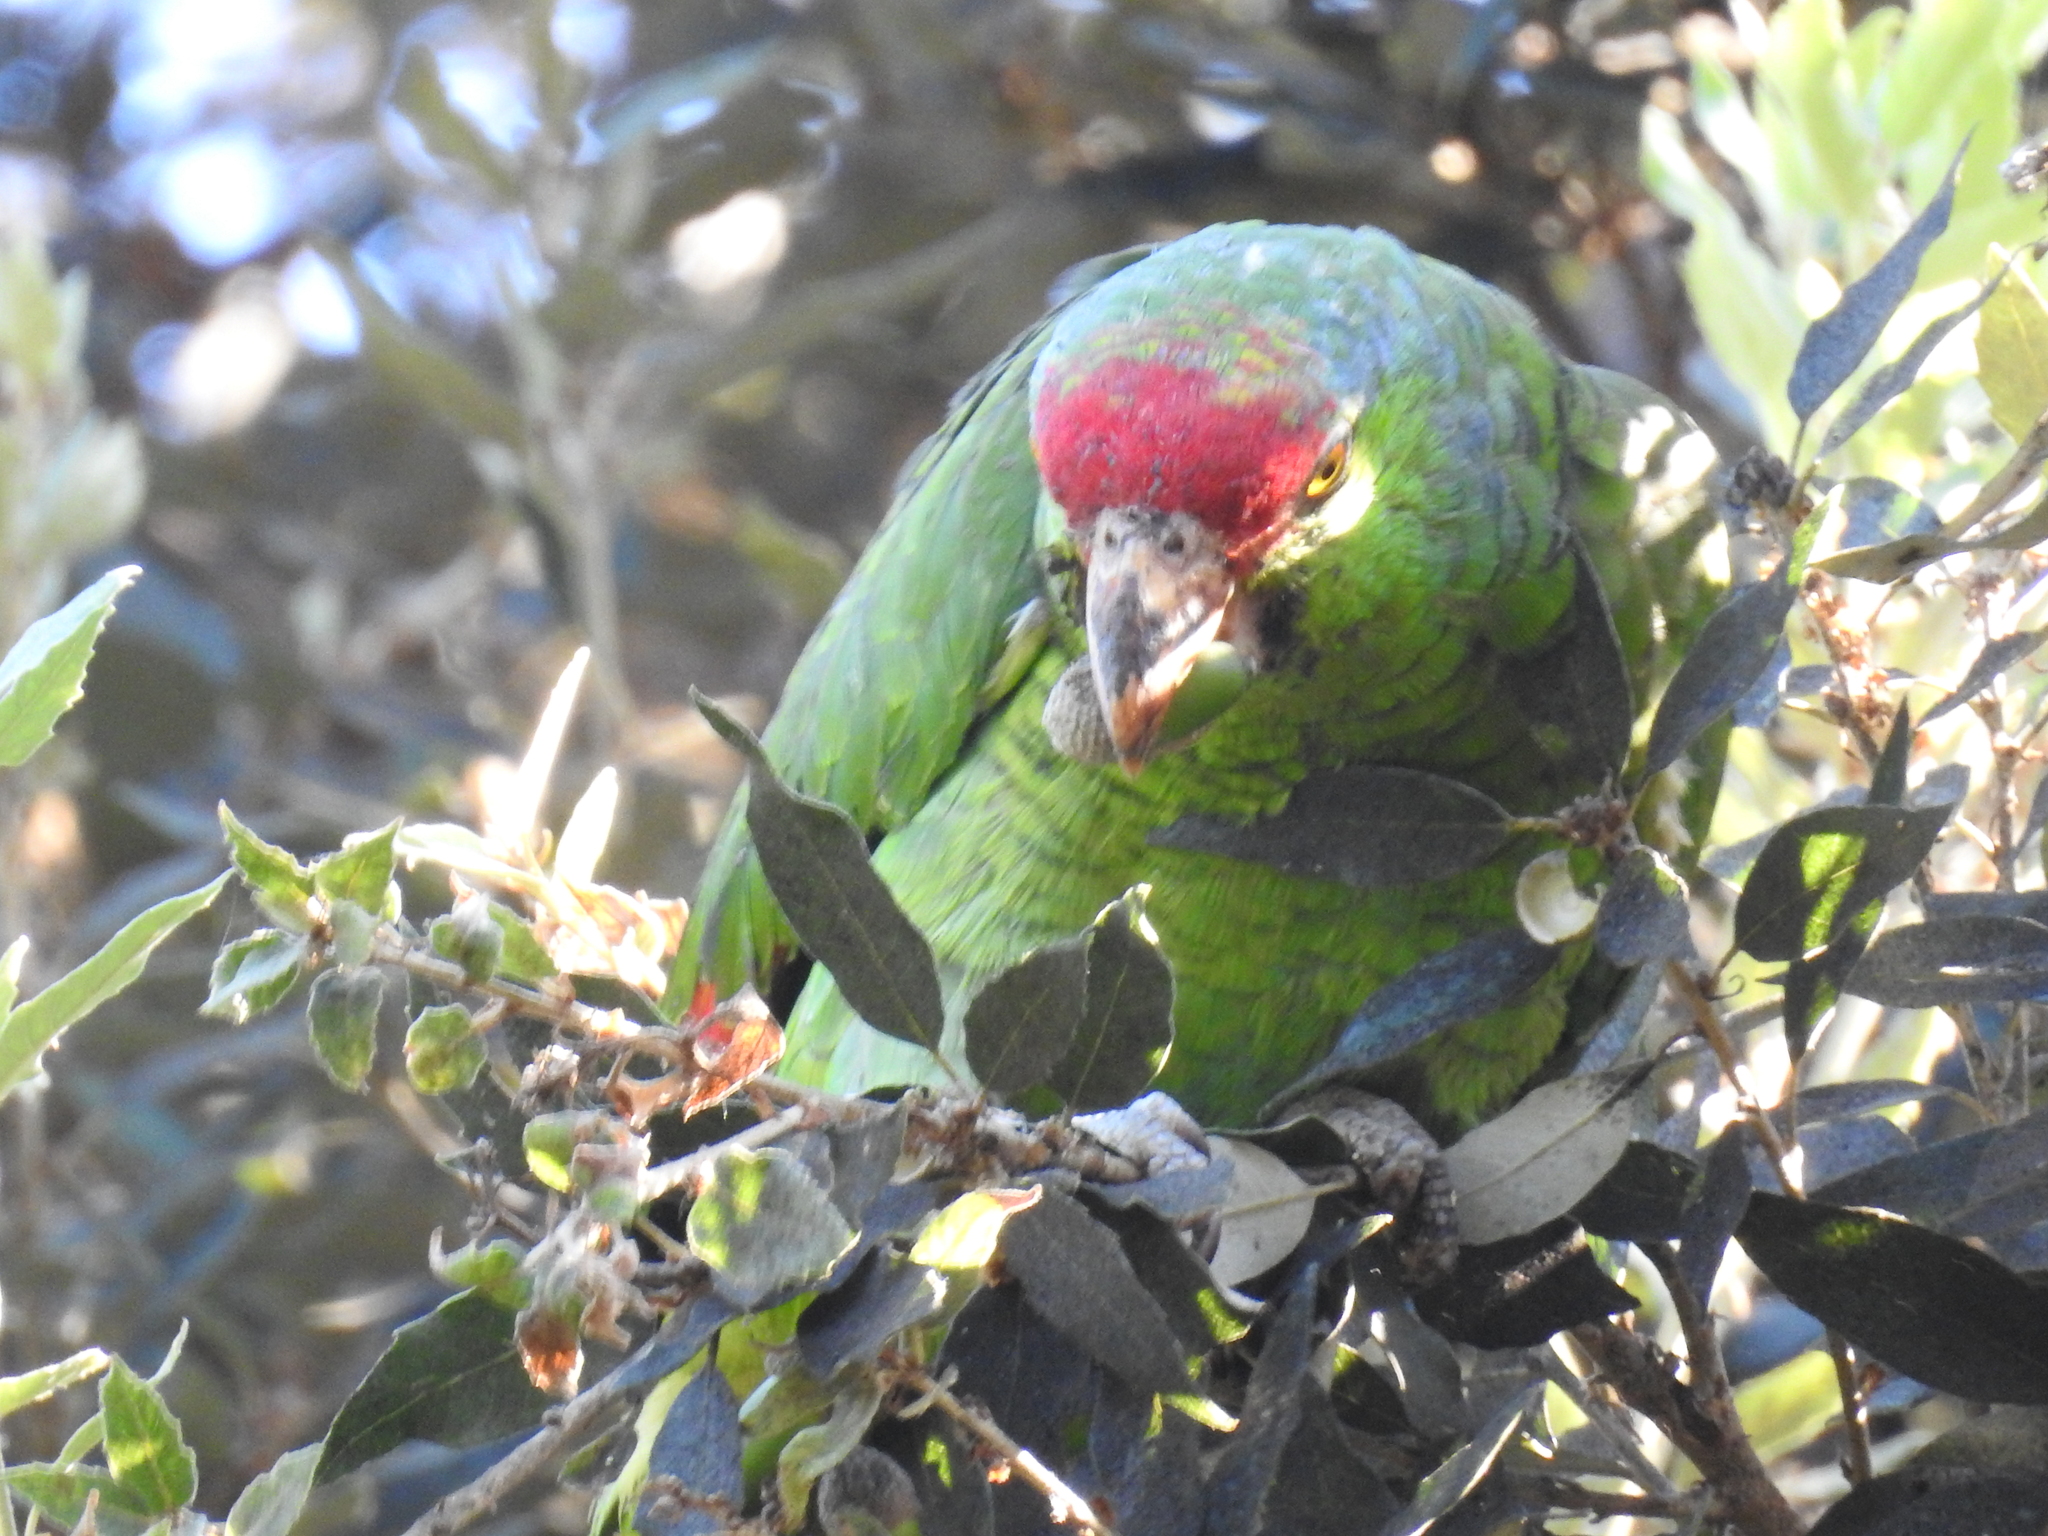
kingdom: Animalia
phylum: Chordata
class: Aves
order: Psittaciformes
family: Psittacidae
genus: Amazona
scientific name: Amazona viridigenalis
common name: Red-crowned amazon
